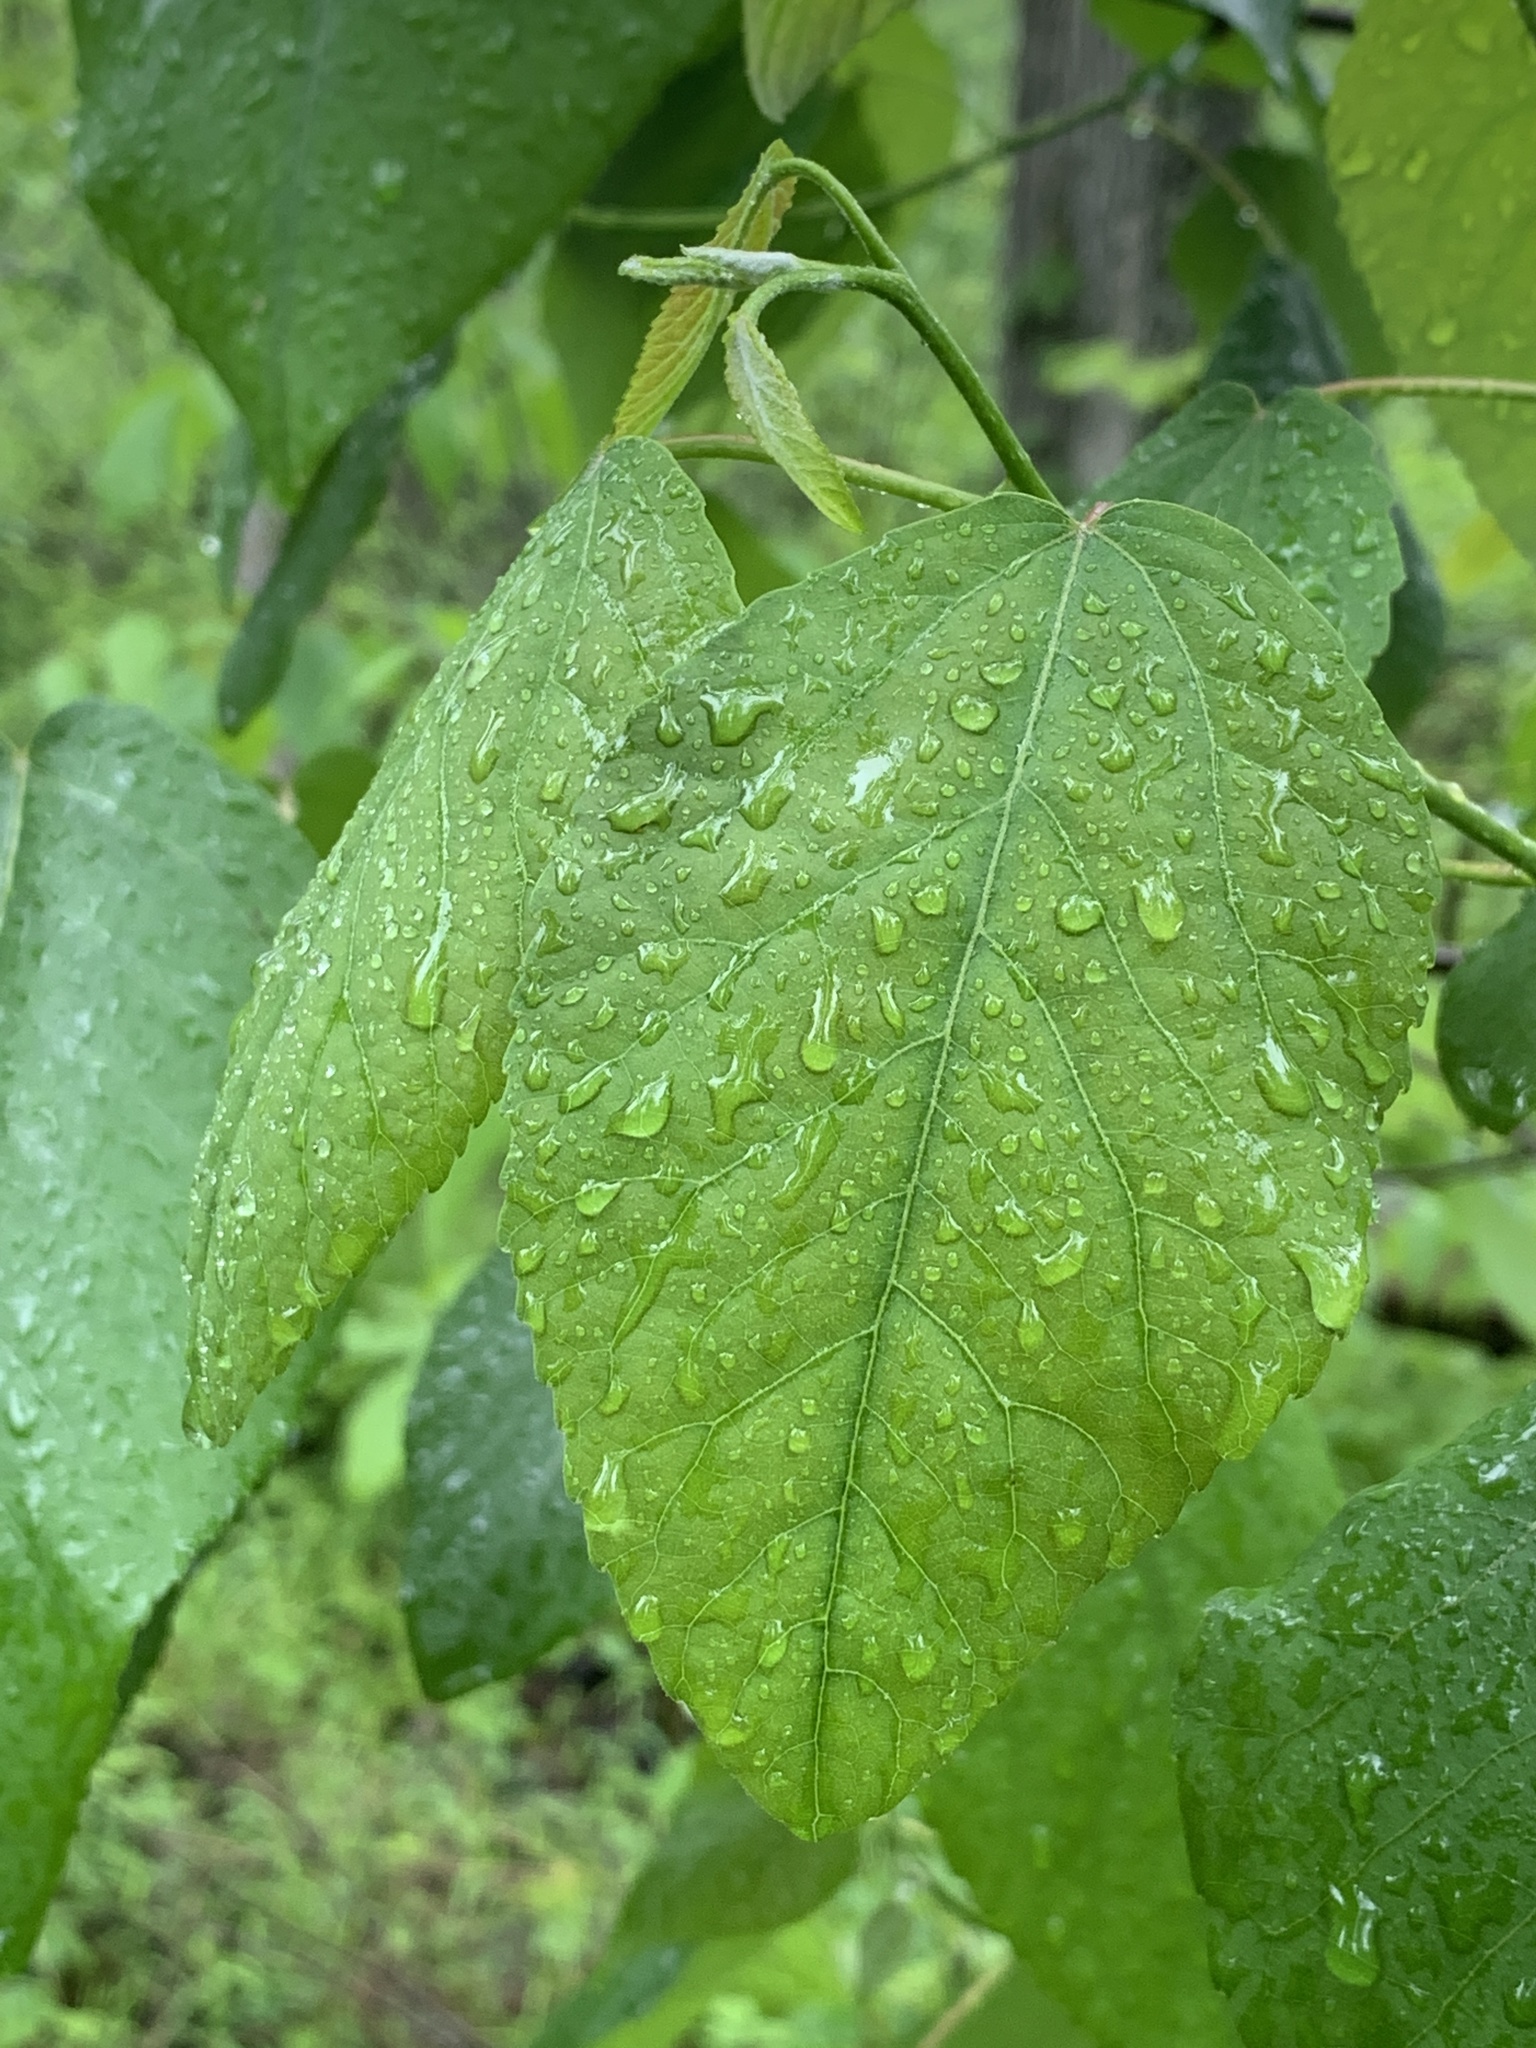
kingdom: Plantae
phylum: Tracheophyta
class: Magnoliopsida
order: Malpighiales
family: Salicaceae
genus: Populus
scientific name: Populus heterophylla
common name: Downy poplar
